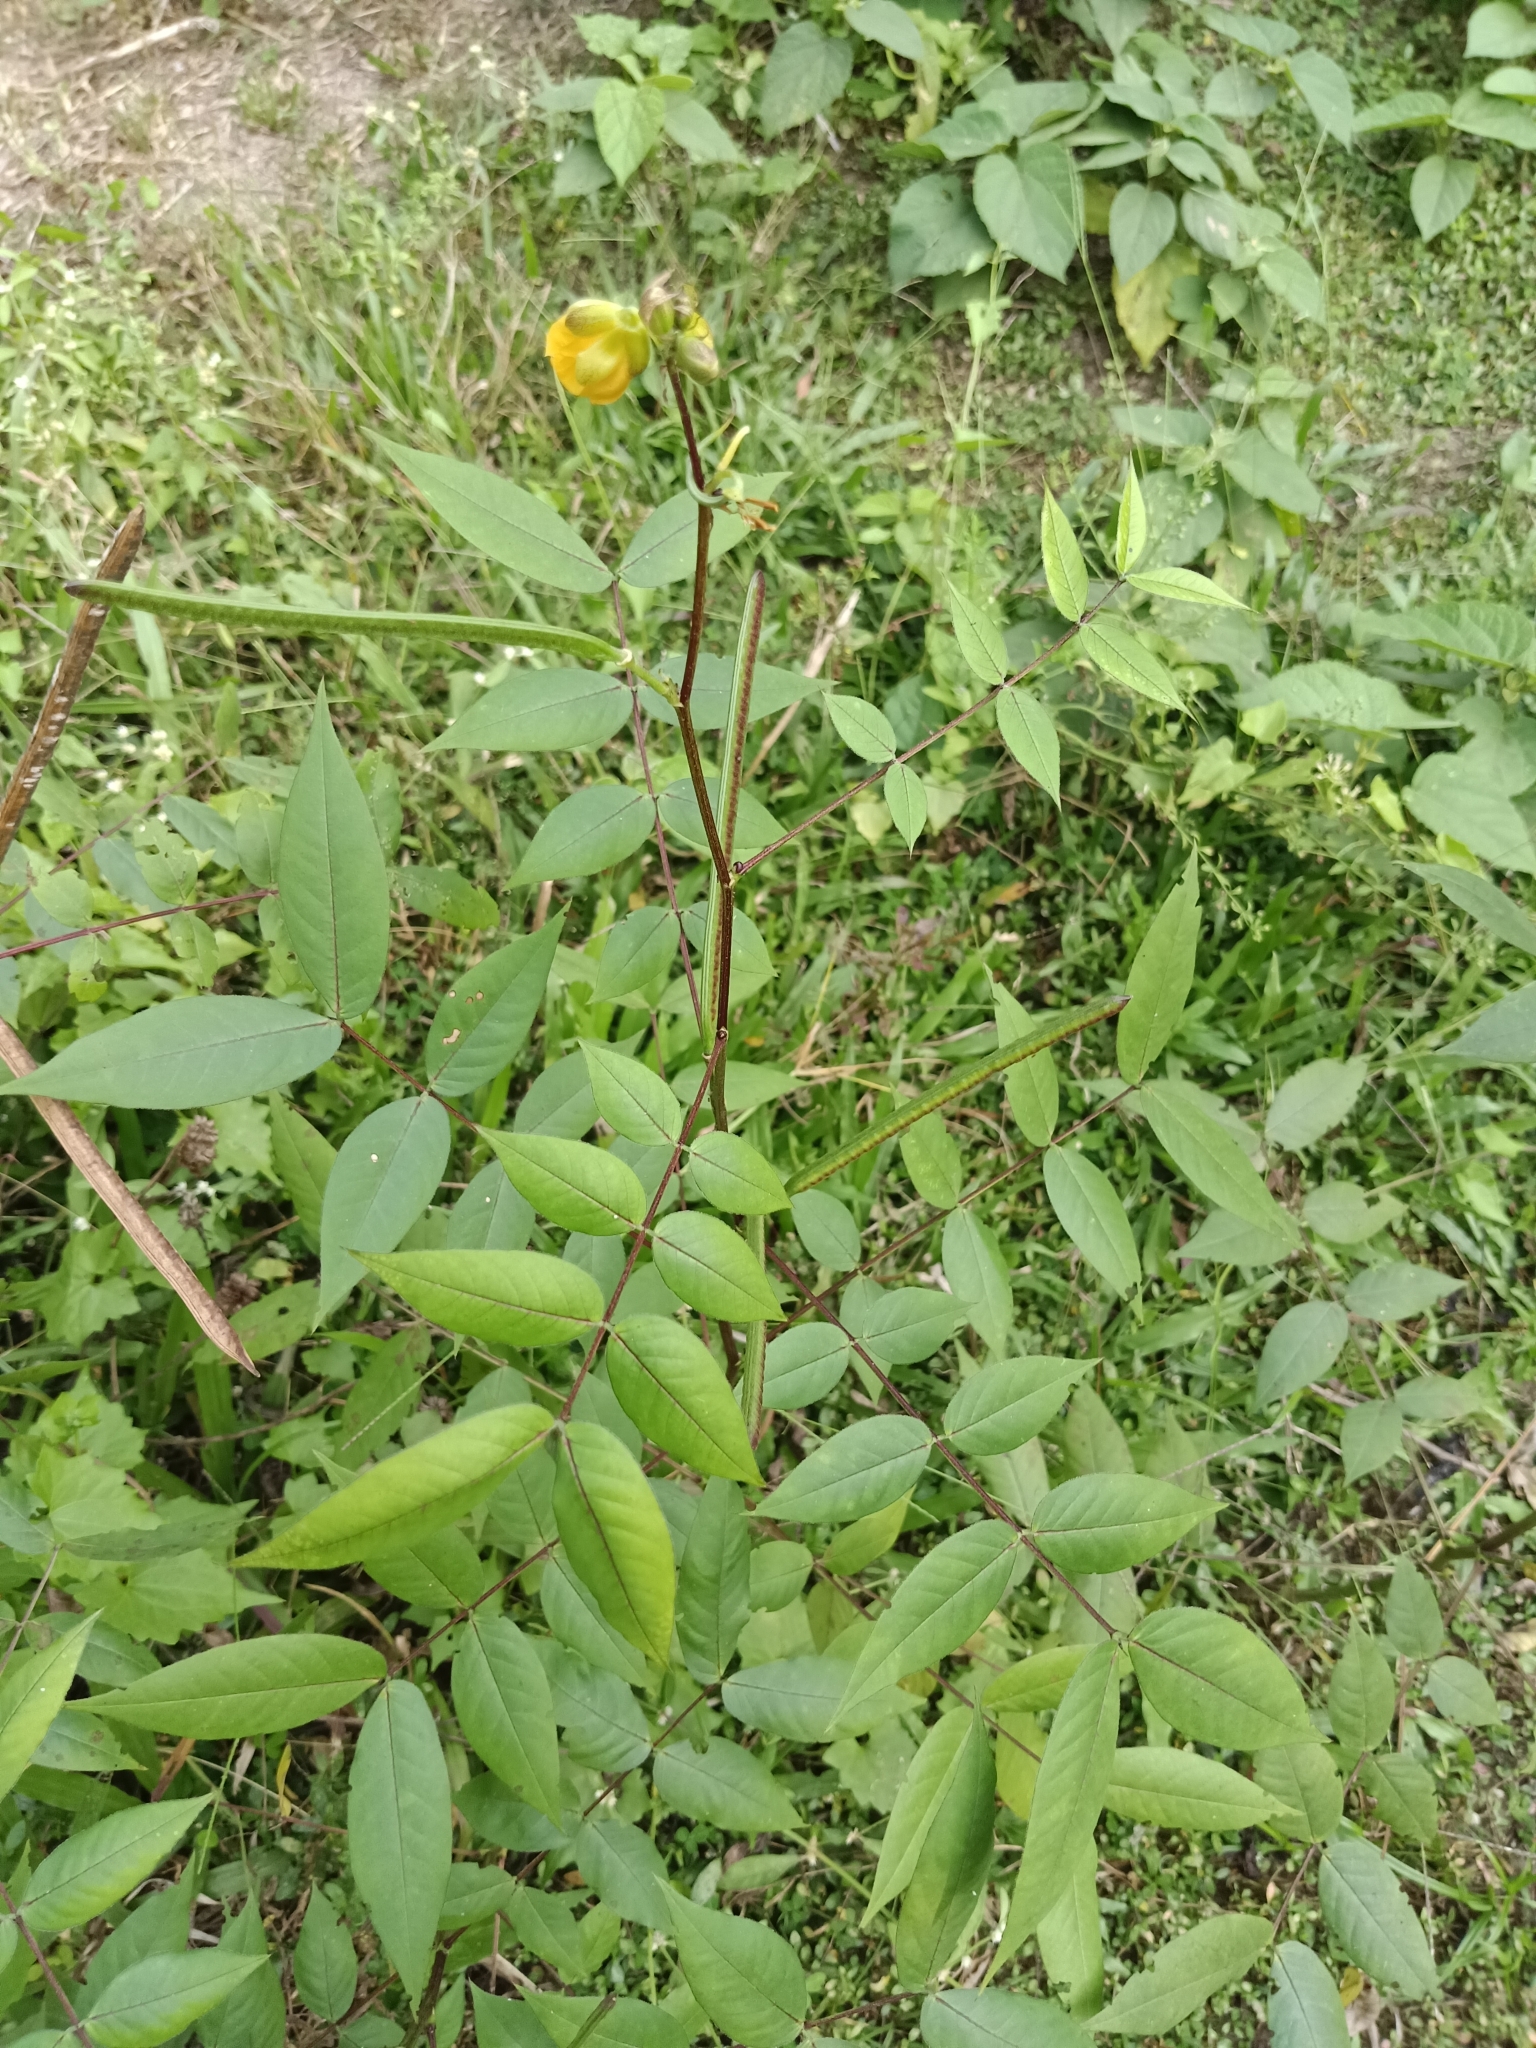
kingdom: Plantae
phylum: Tracheophyta
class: Magnoliopsida
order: Fabales
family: Fabaceae
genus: Senna
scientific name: Senna occidentalis
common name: Septicweed
